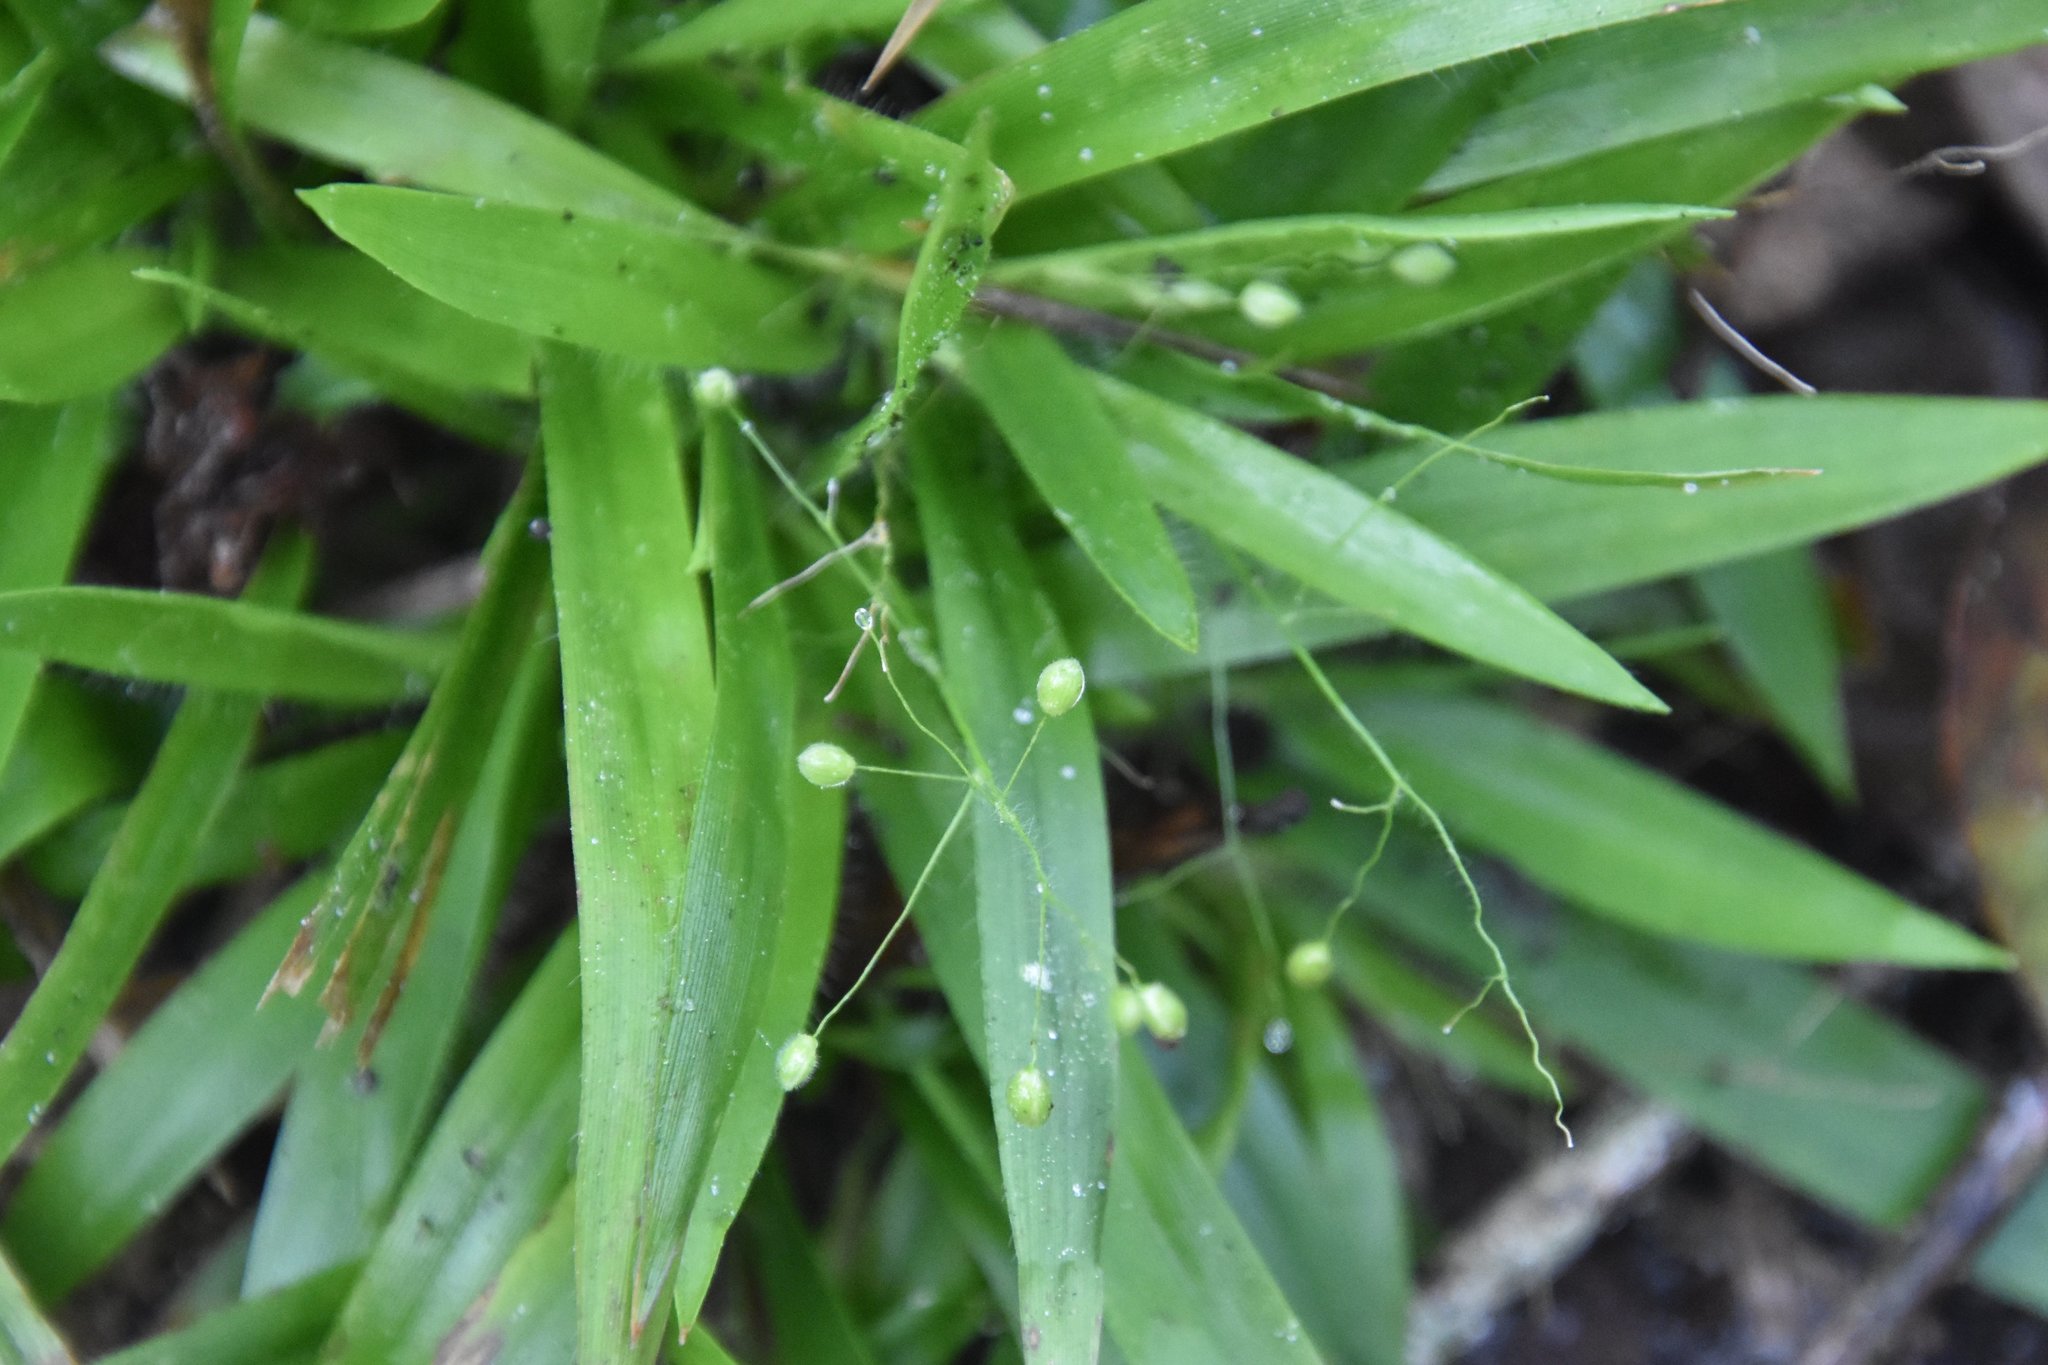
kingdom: Plantae
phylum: Tracheophyta
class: Liliopsida
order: Poales
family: Poaceae
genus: Dichanthelium
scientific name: Dichanthelium laxiflorum
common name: Soft-tuft panic grass
